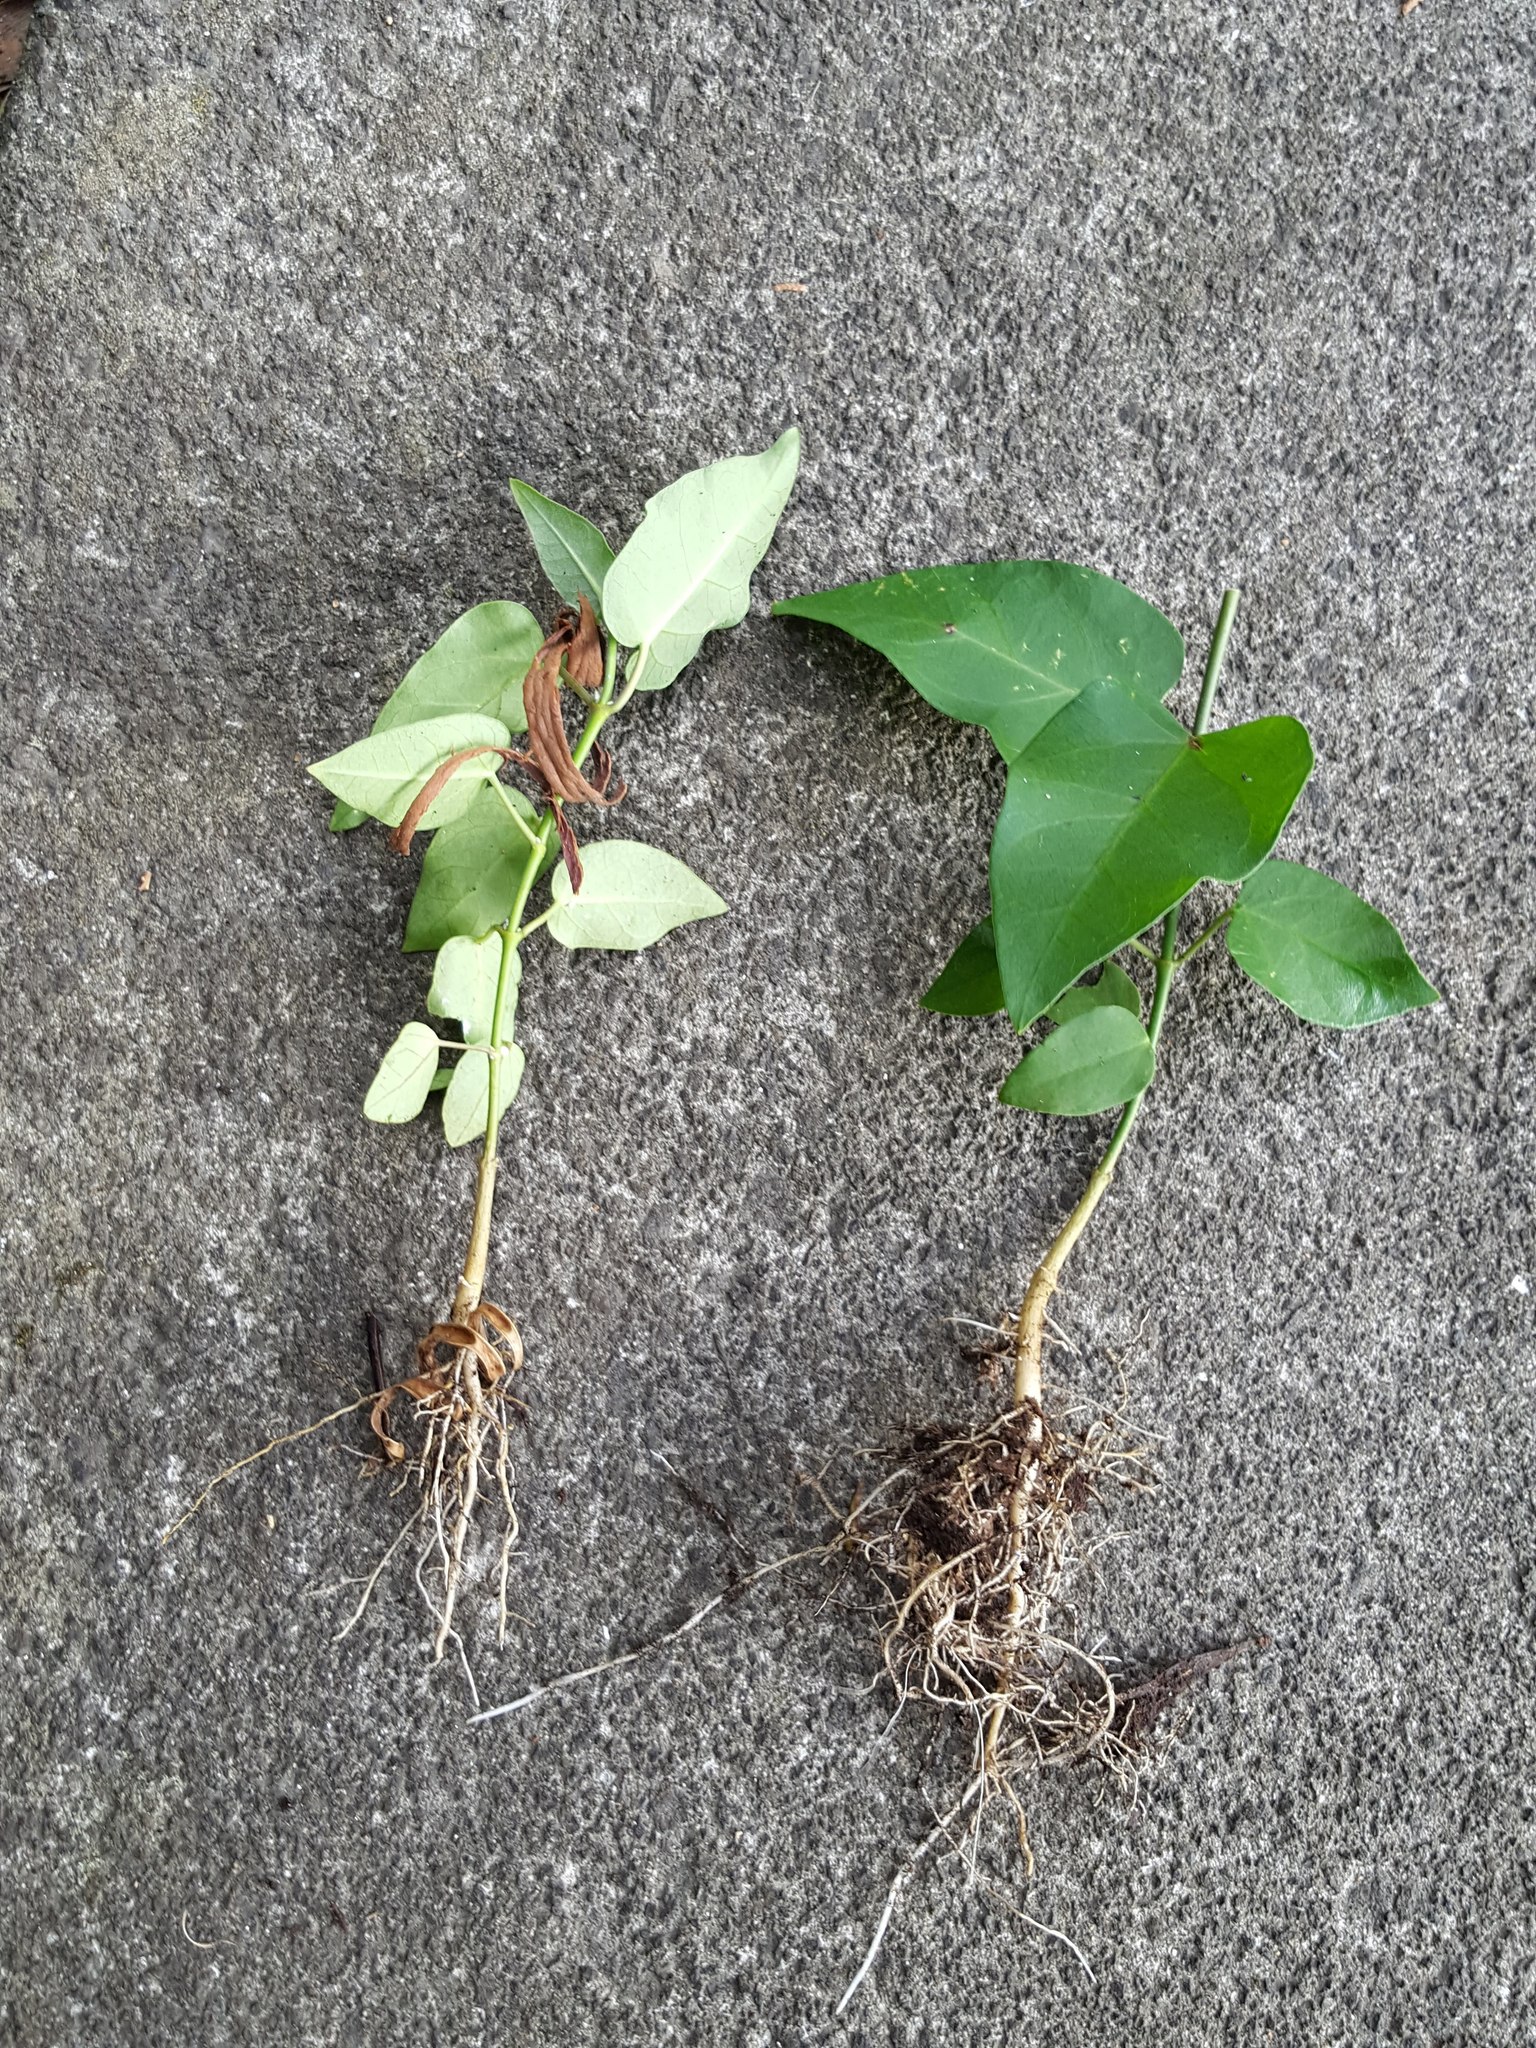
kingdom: Plantae
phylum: Tracheophyta
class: Magnoliopsida
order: Gentianales
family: Apocynaceae
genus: Araujia
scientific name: Araujia sericifera
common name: White bladderflower
